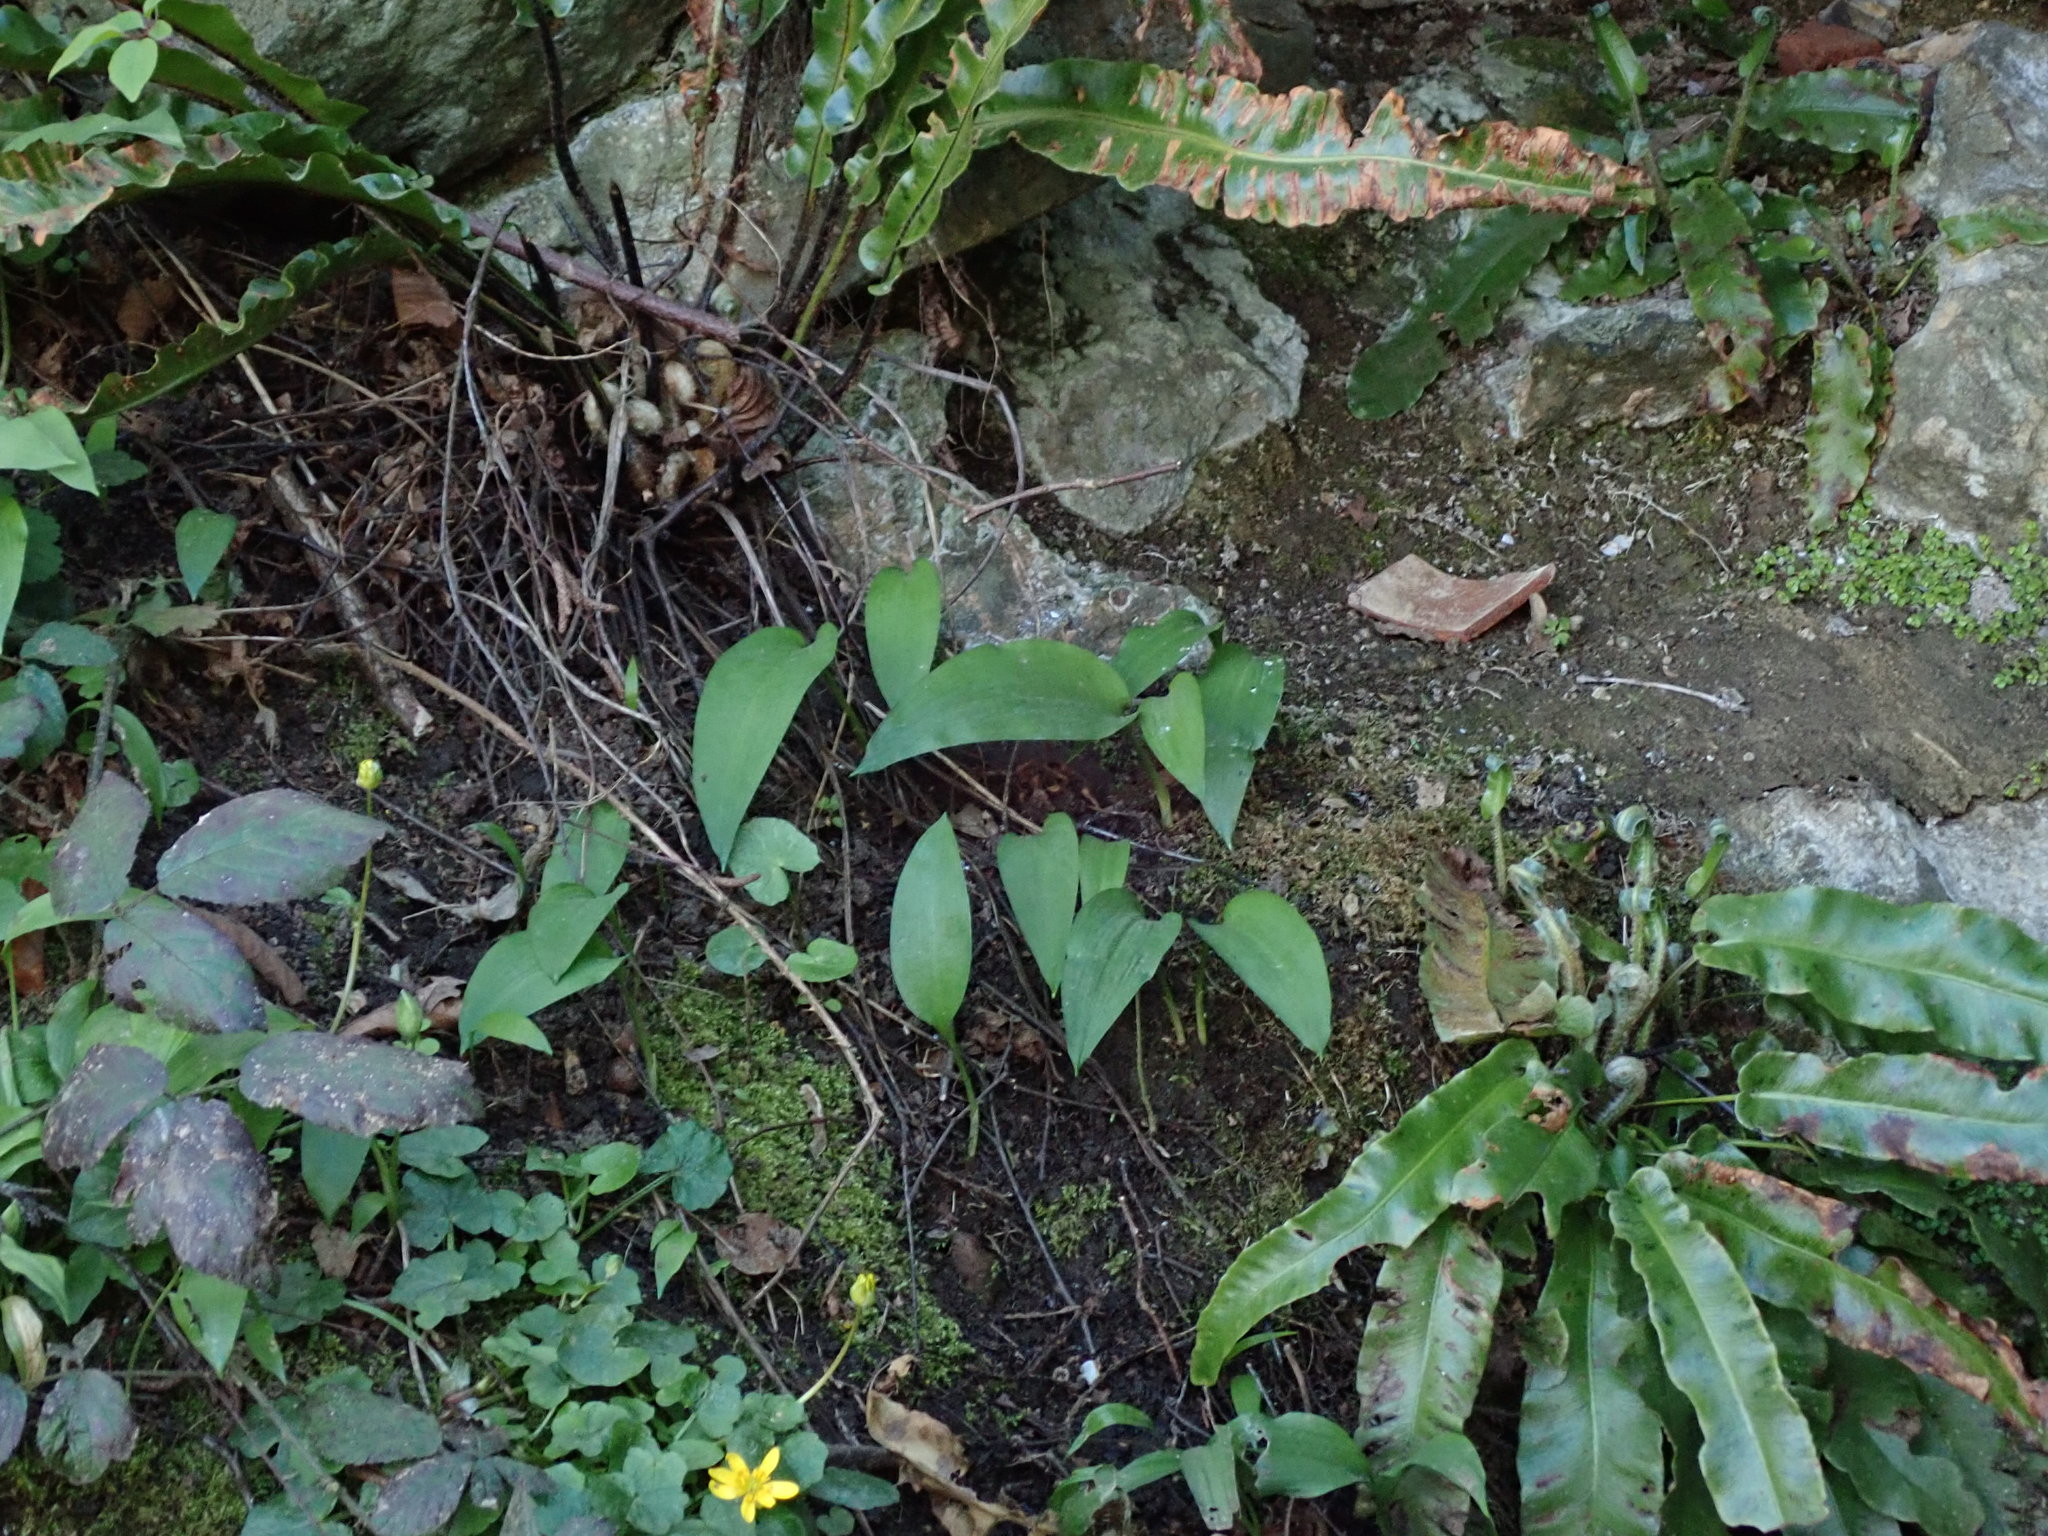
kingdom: Plantae
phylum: Tracheophyta
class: Liliopsida
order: Asparagales
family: Amaryllidaceae
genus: Allium
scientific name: Allium ursinum
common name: Ramsons
